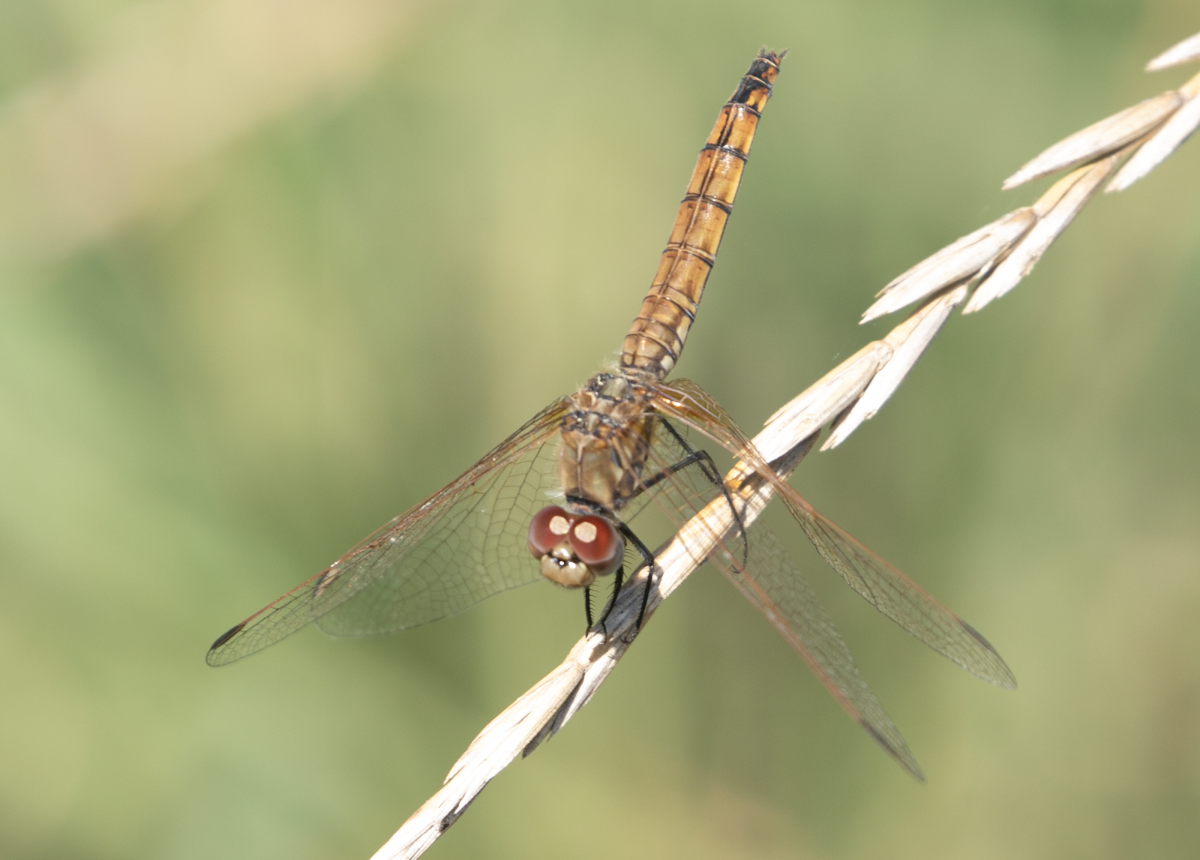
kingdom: Animalia
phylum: Arthropoda
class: Insecta
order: Odonata
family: Libellulidae
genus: Trithemis
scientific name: Trithemis annulata
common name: Violet dropwing
